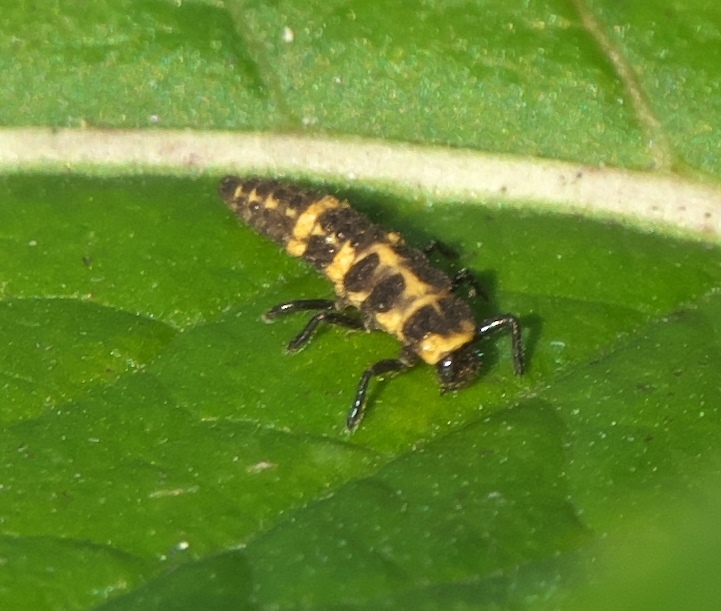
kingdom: Animalia
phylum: Arthropoda
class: Insecta
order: Coleoptera
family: Coccinellidae
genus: Coleomegilla
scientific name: Coleomegilla maculata
